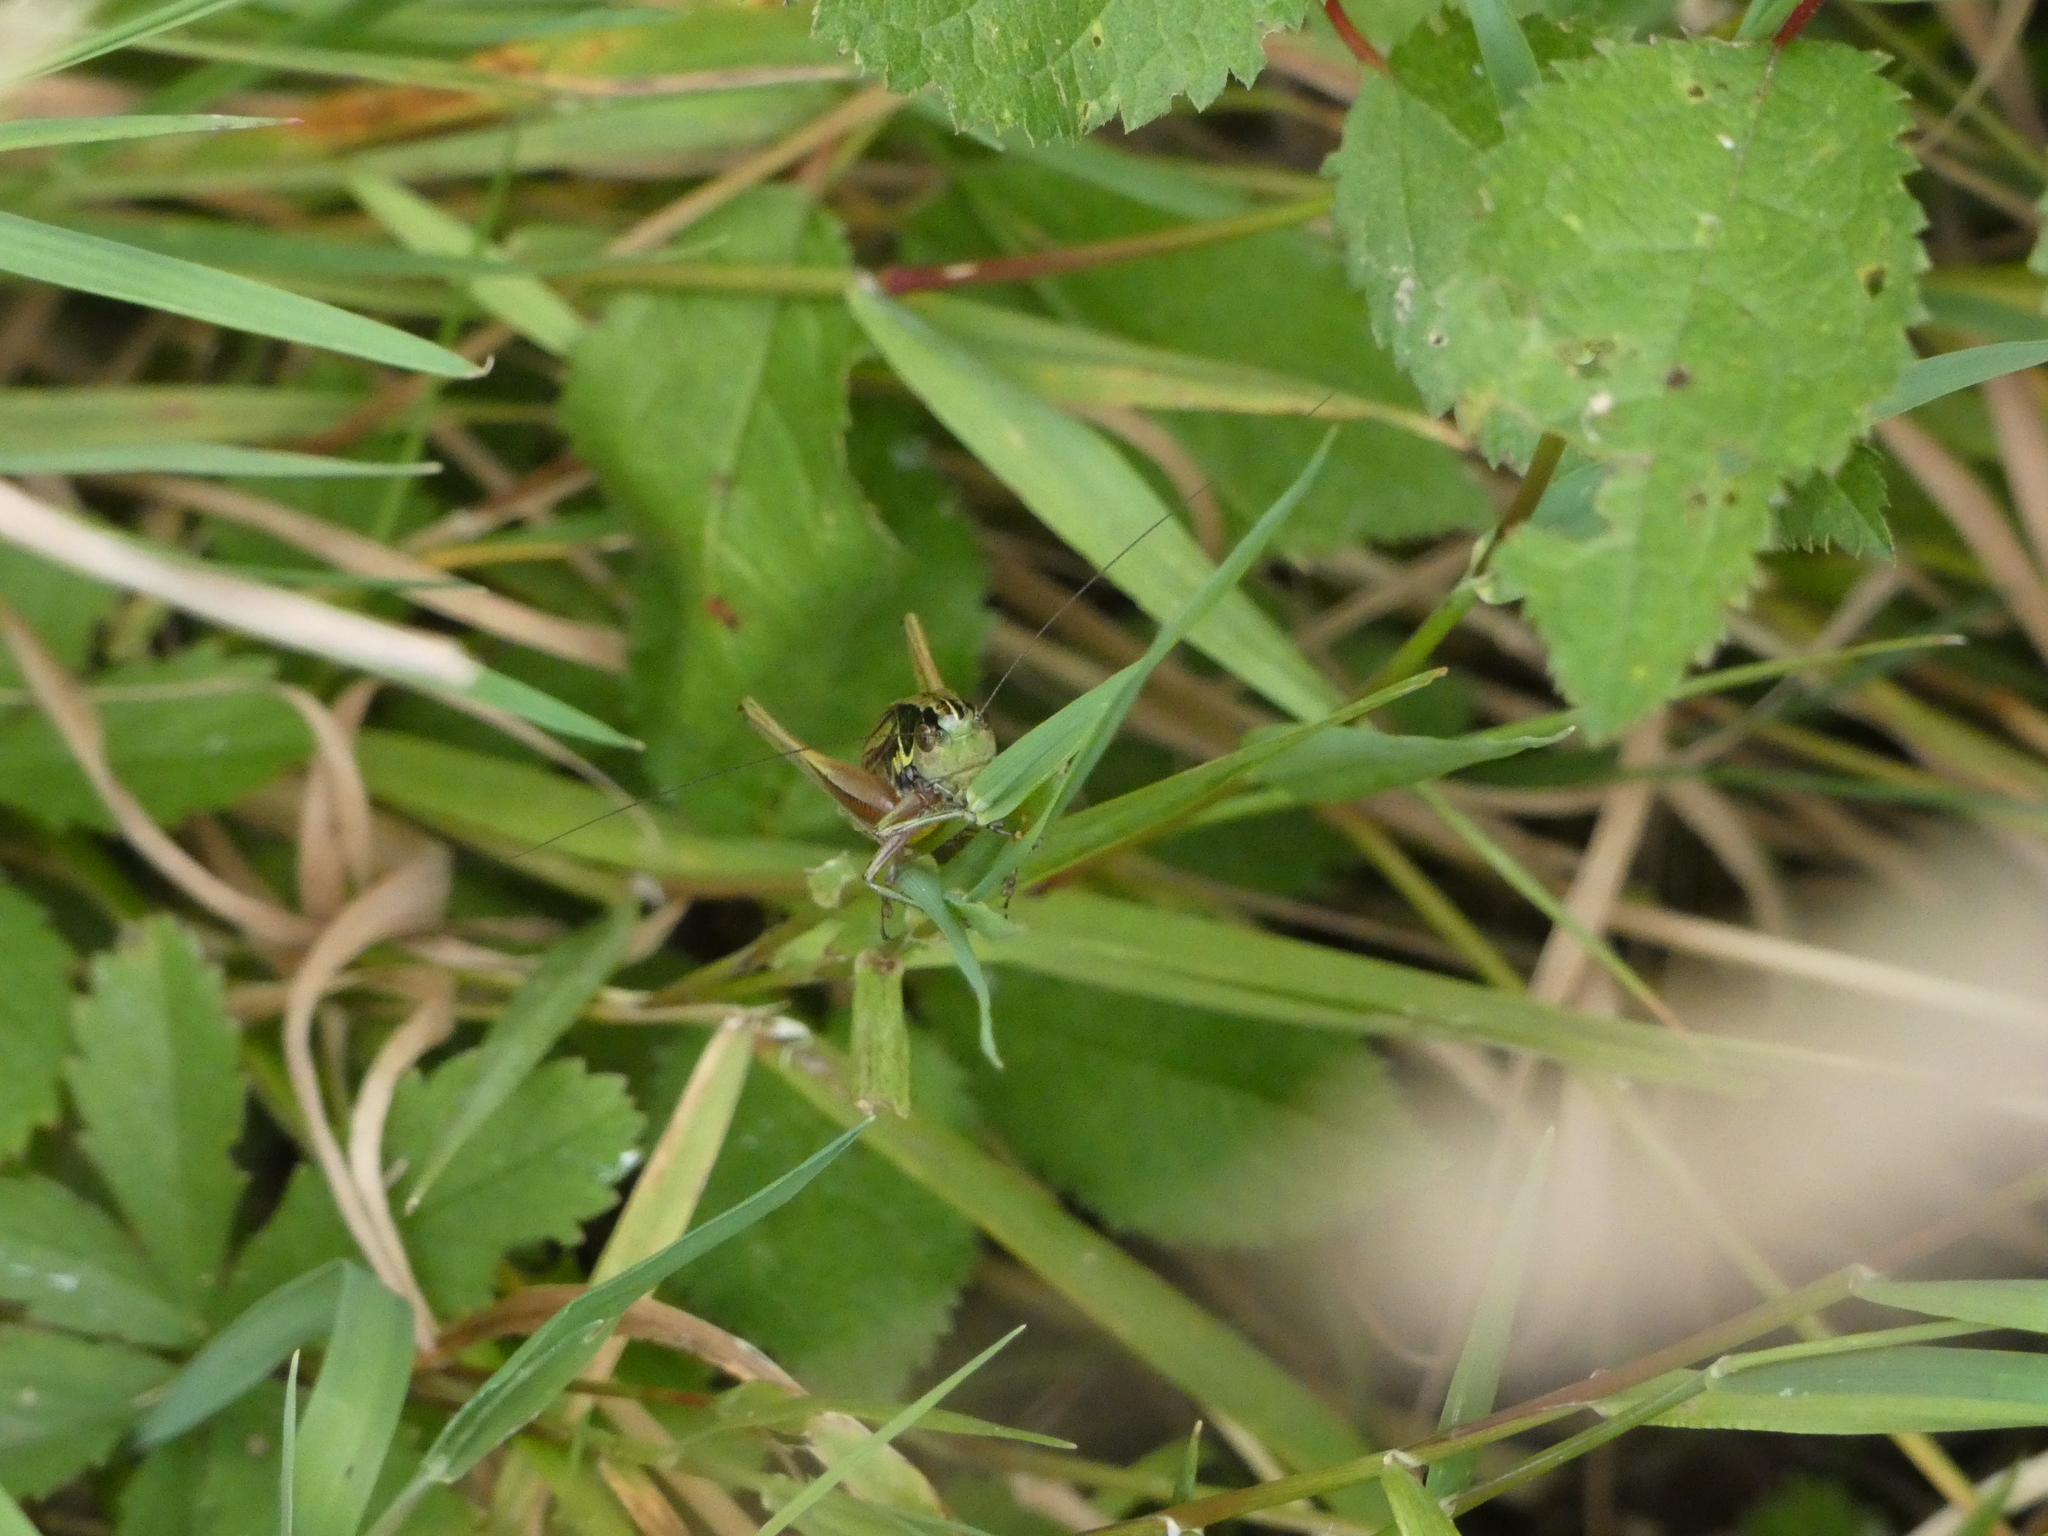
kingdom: Animalia
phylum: Arthropoda
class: Insecta
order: Orthoptera
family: Tettigoniidae
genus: Roeseliana
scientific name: Roeseliana roeselii
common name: Roesel's bush cricket
